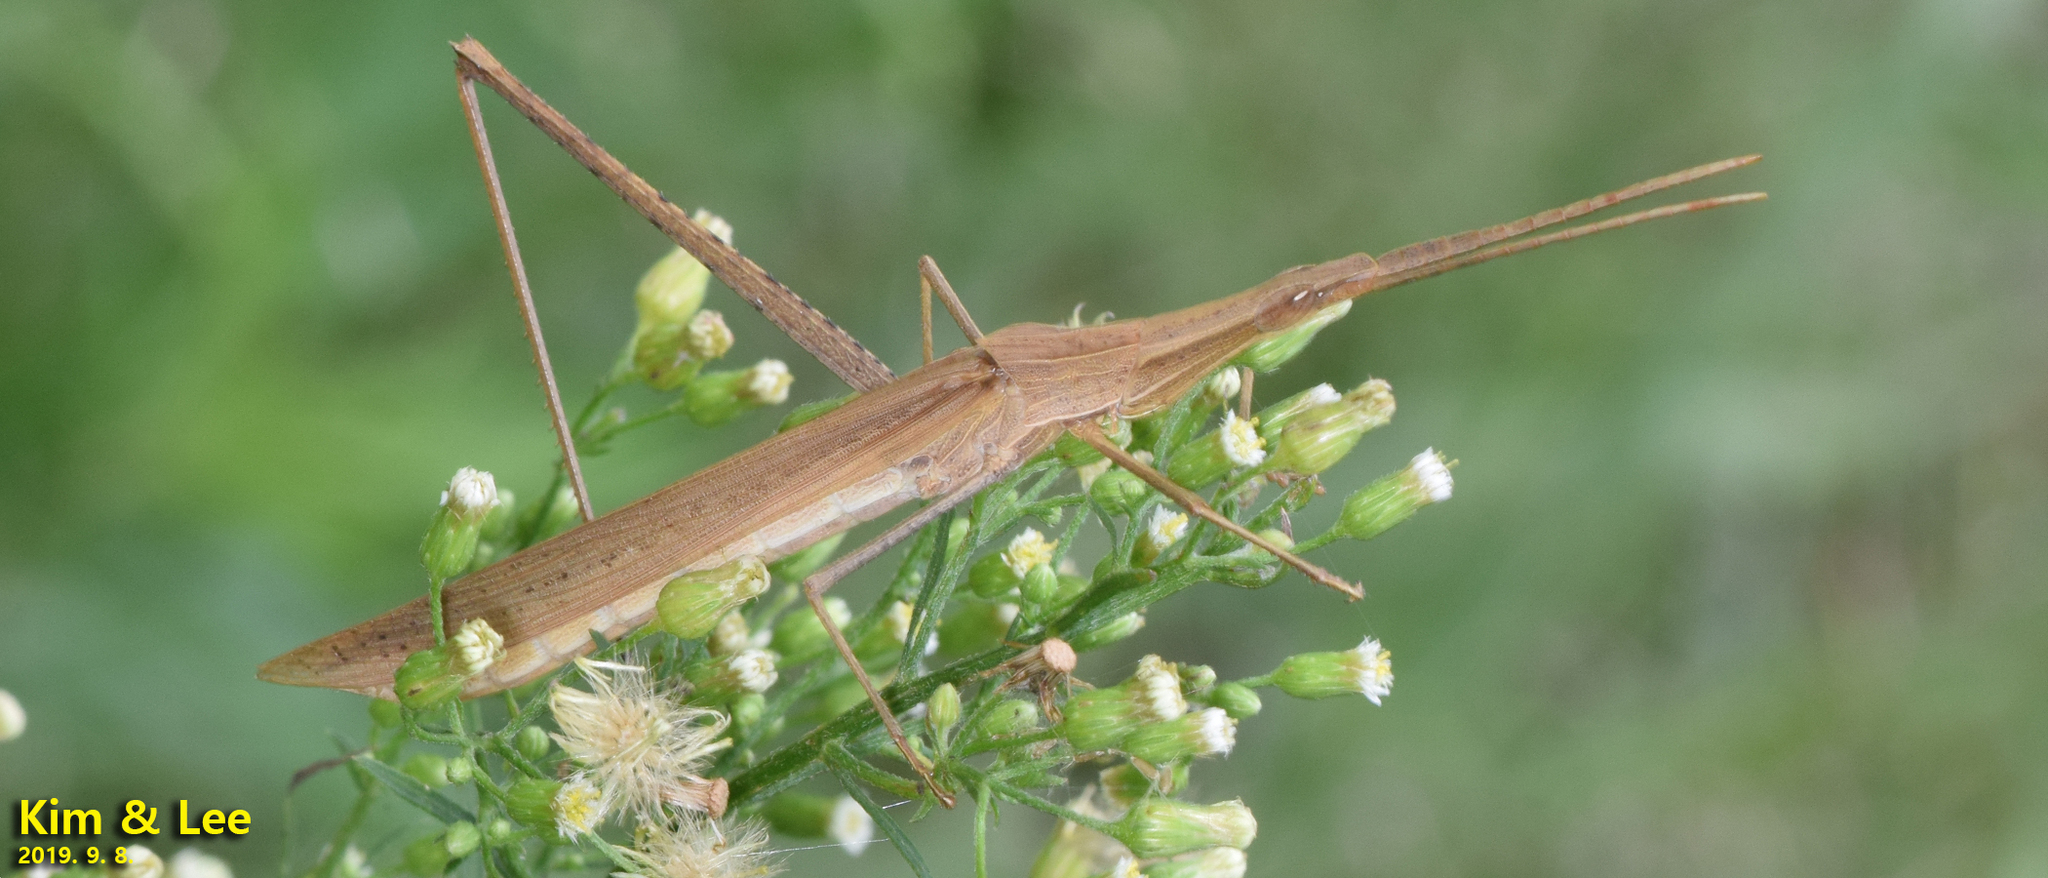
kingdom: Animalia
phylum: Arthropoda
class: Insecta
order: Orthoptera
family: Acrididae
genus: Acrida
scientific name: Acrida cinerea
